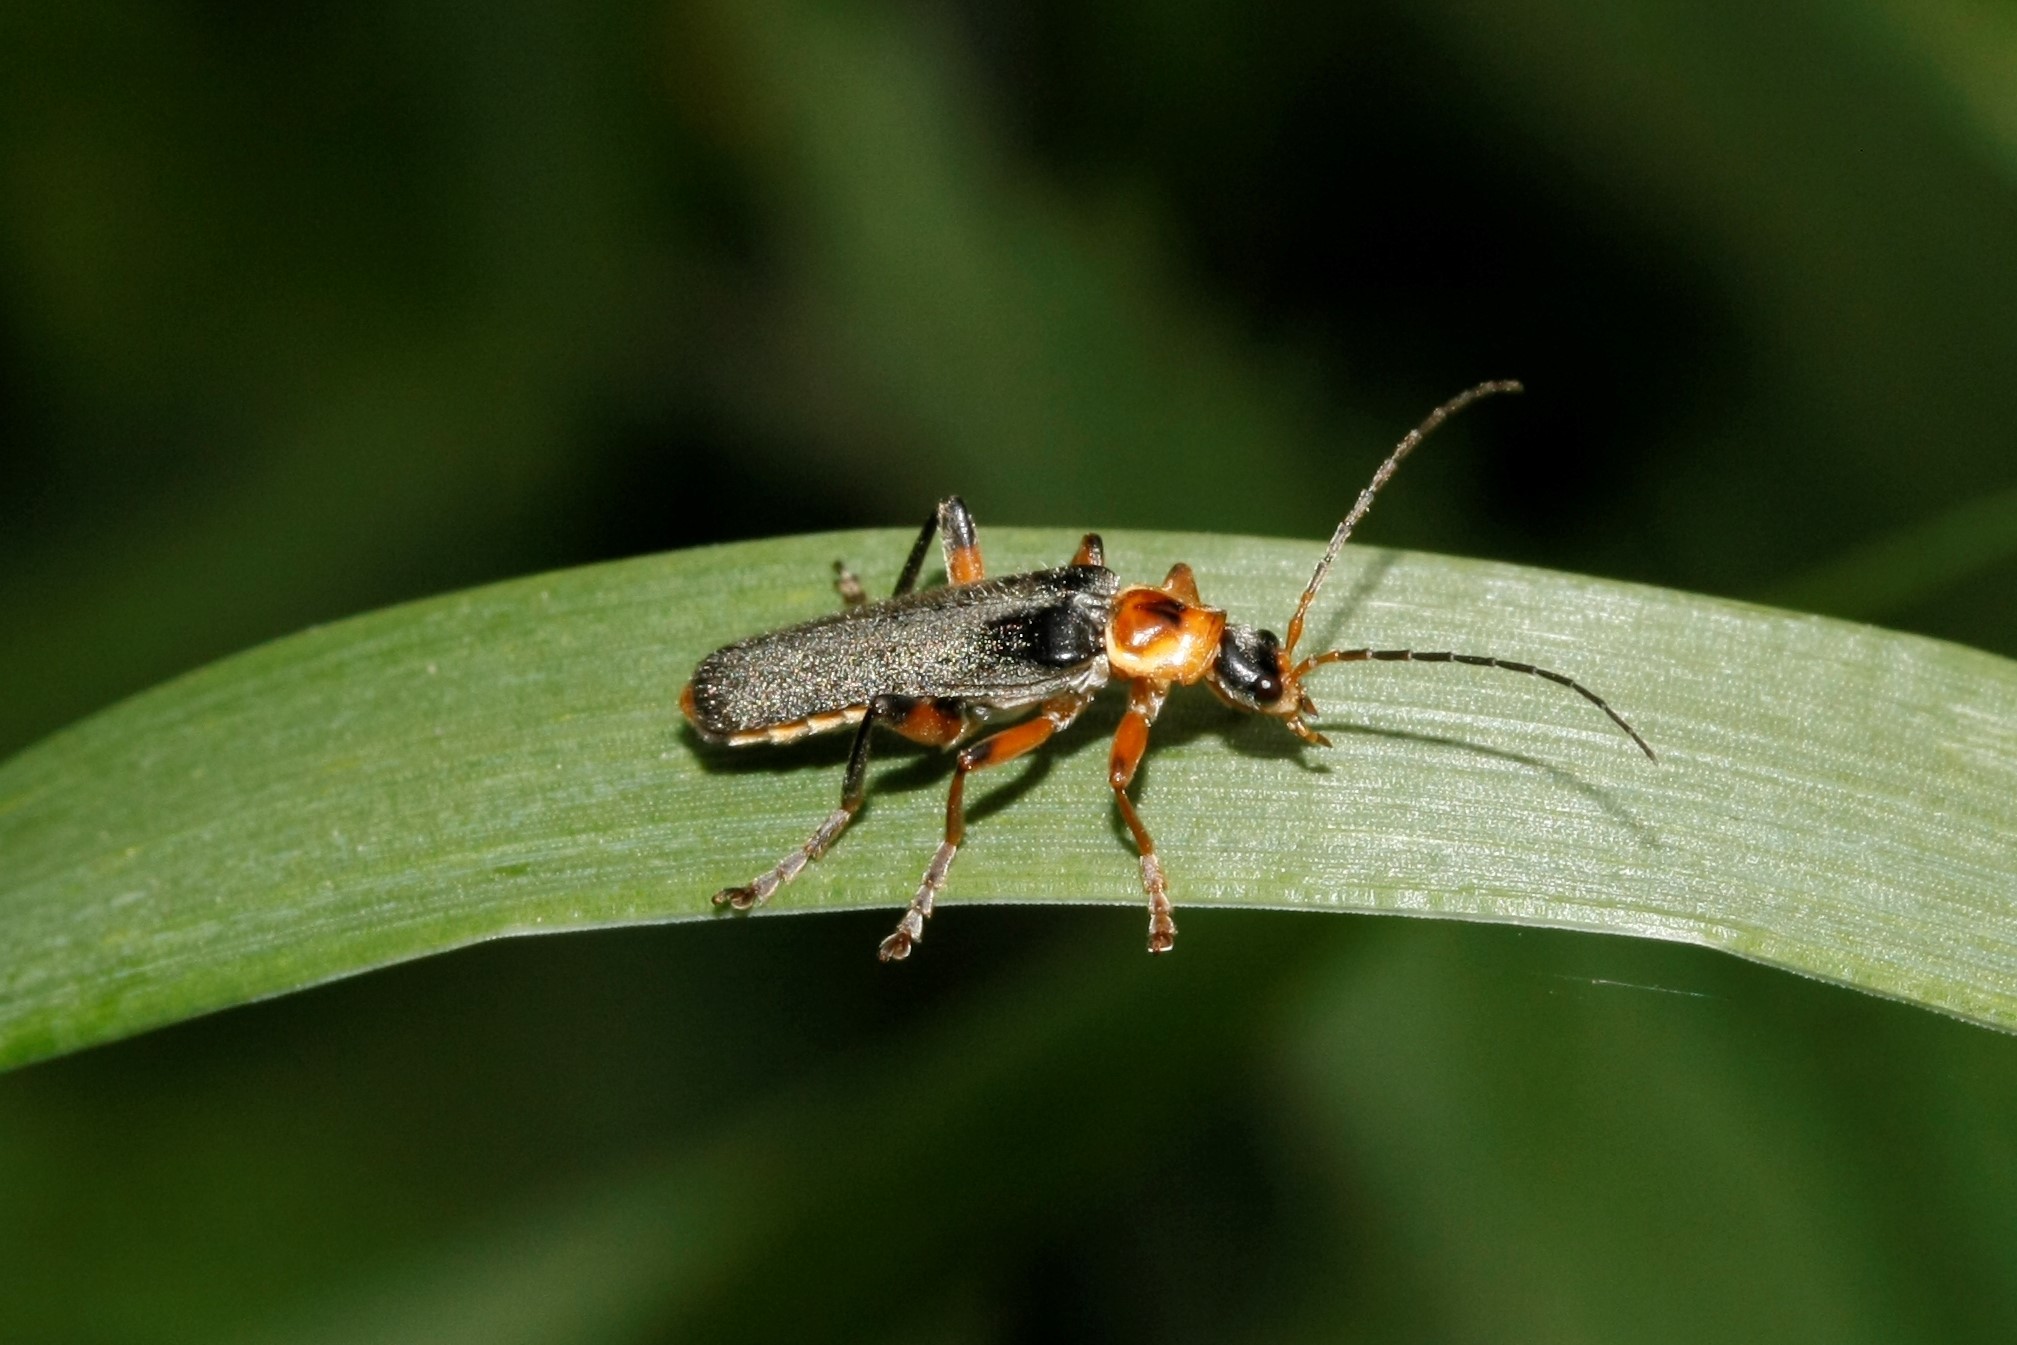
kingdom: Animalia
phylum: Arthropoda
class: Insecta
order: Coleoptera
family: Cantharidae
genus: Cantharis
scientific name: Cantharis nigricans
